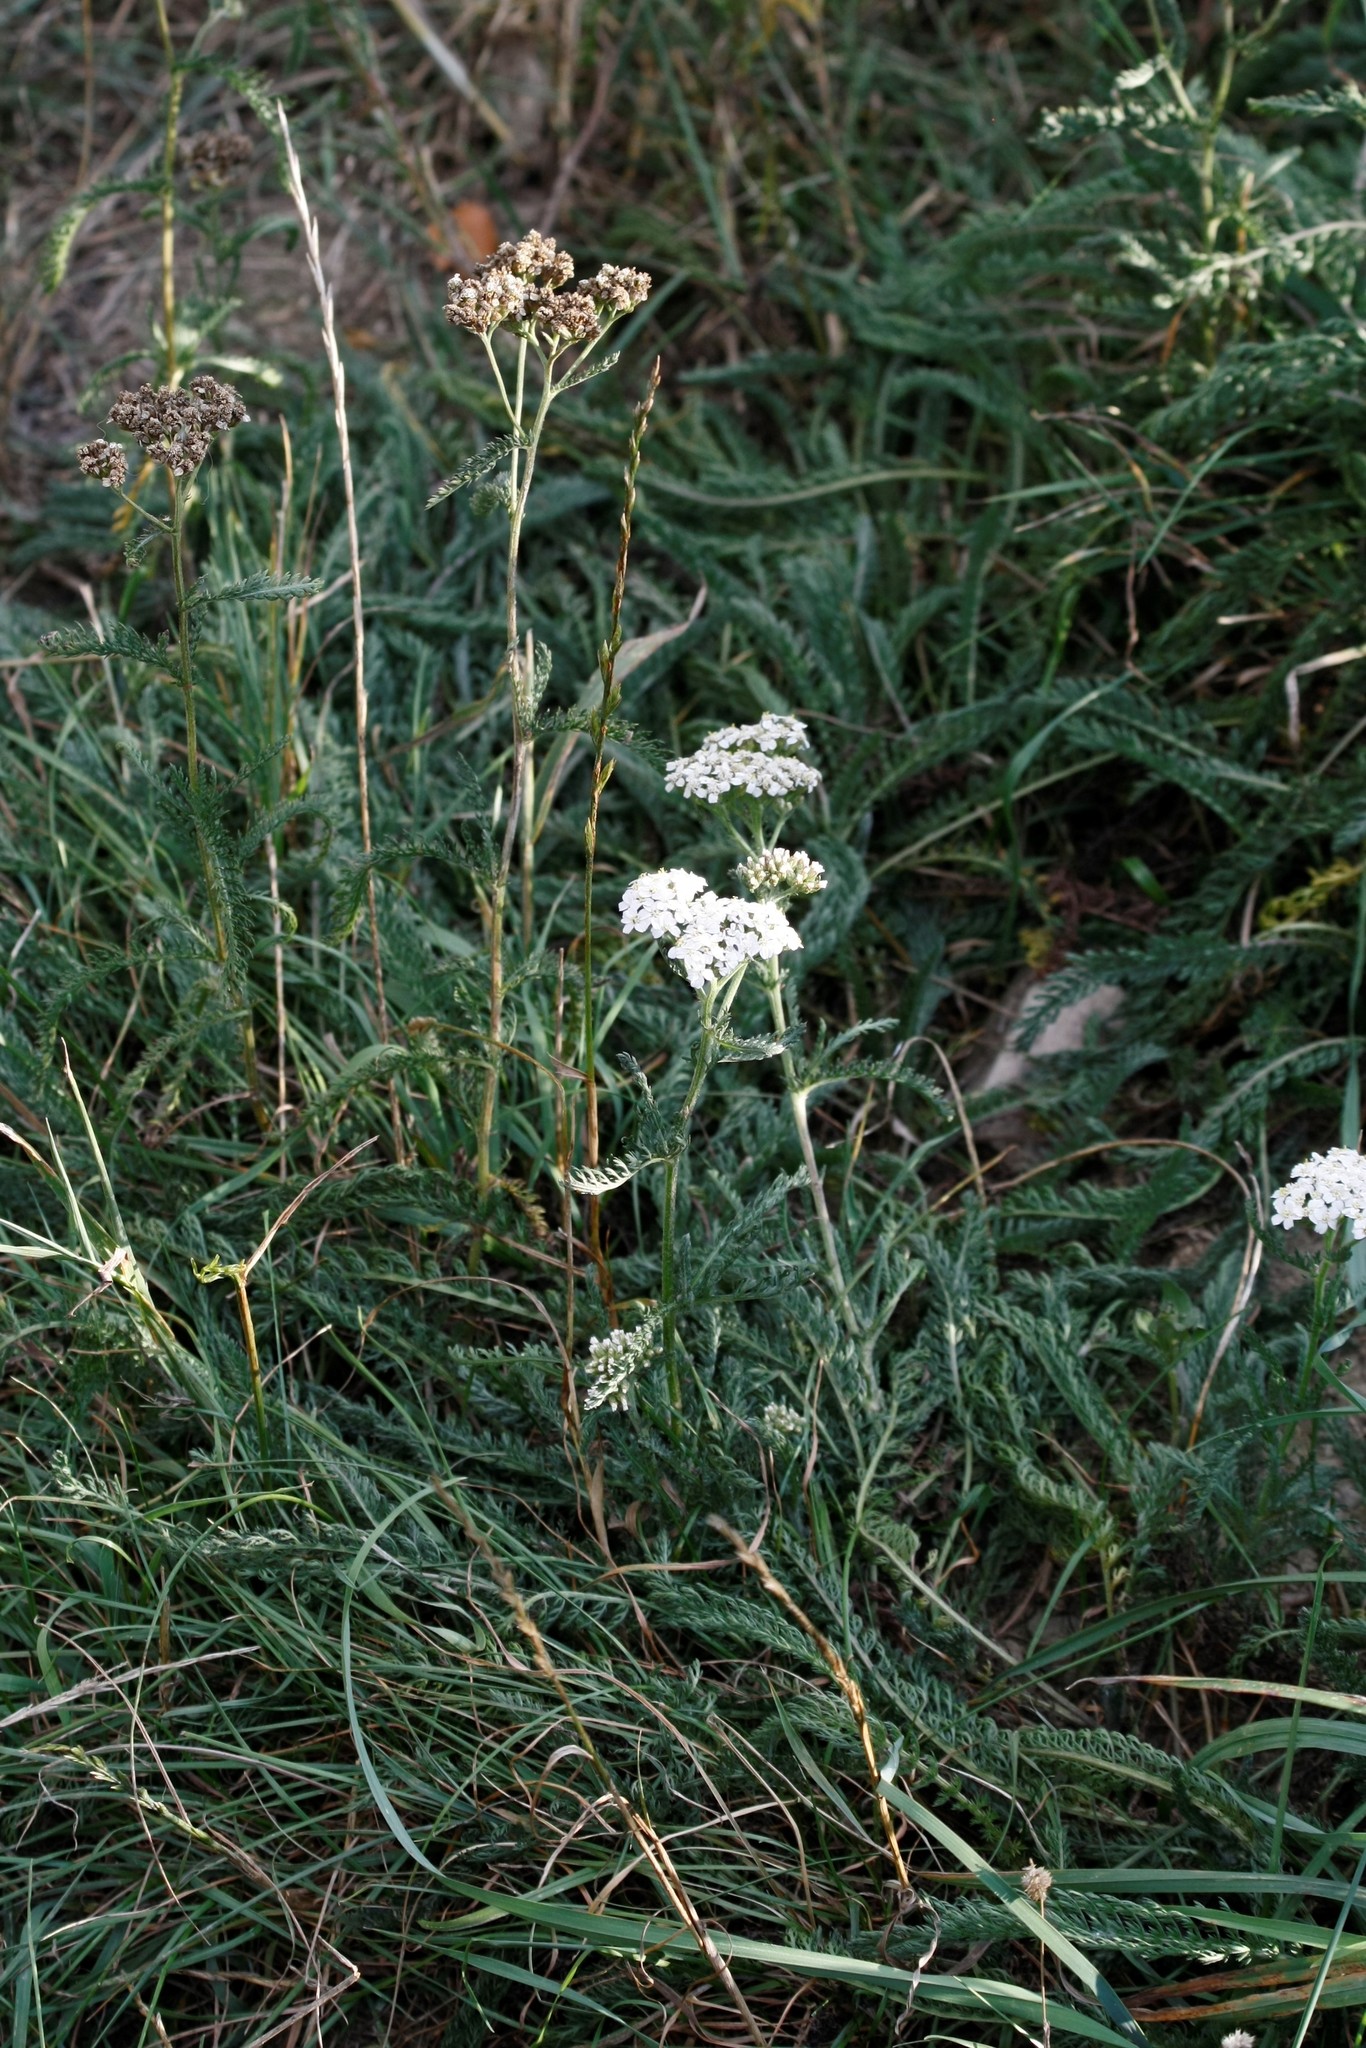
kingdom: Plantae
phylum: Tracheophyta
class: Magnoliopsida
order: Asterales
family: Asteraceae
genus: Achillea
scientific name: Achillea millefolium
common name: Yarrow
